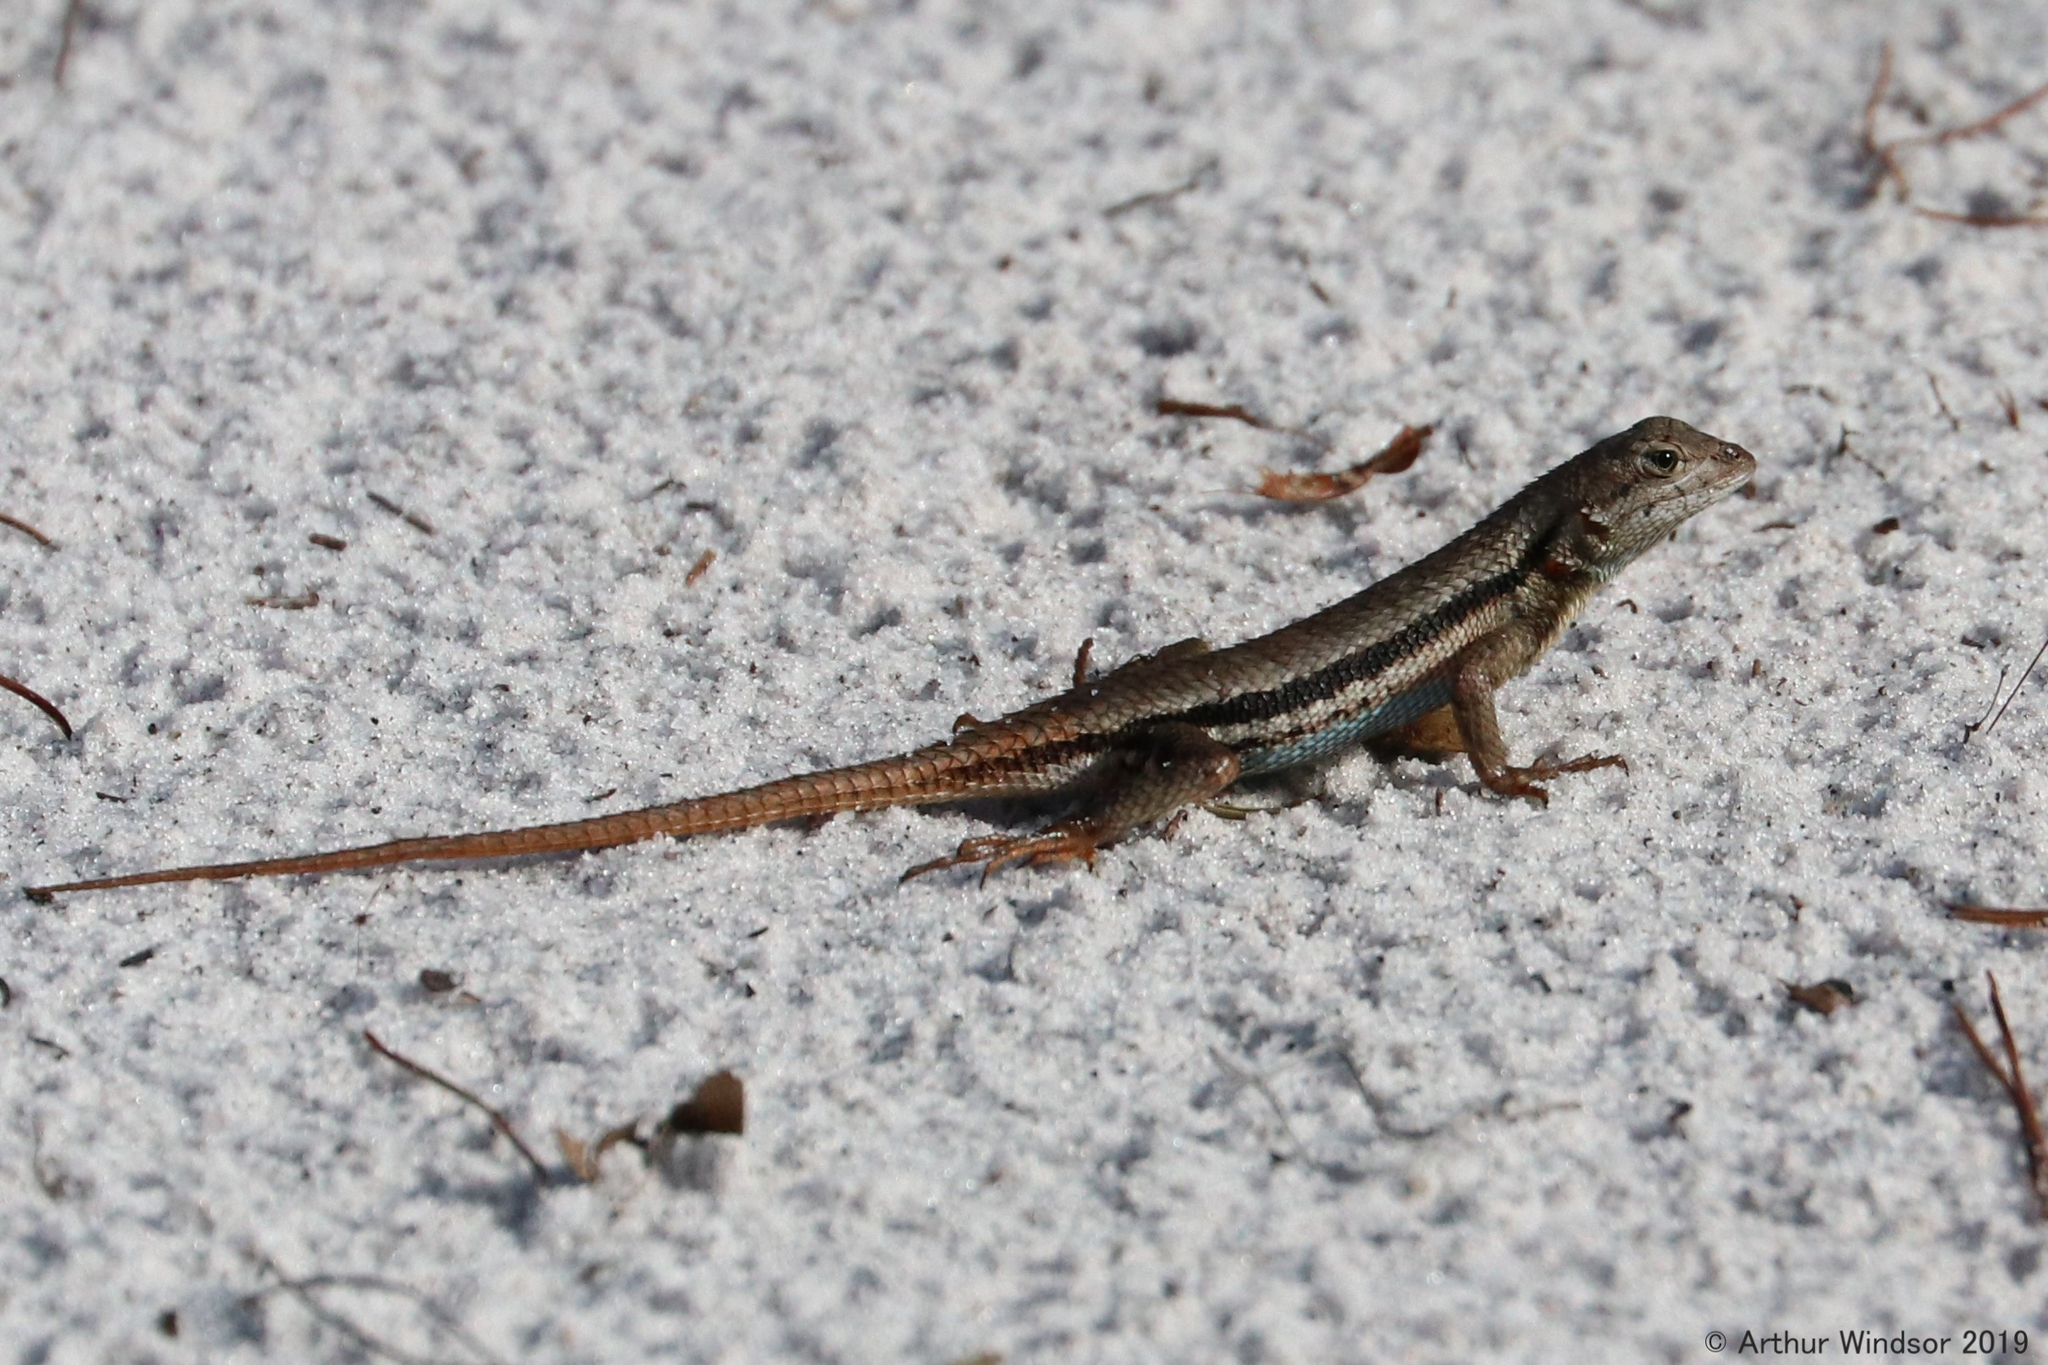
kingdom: Animalia
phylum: Chordata
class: Squamata
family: Phrynosomatidae
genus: Sceloporus
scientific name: Sceloporus woodi
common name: Florida scrub lizard
